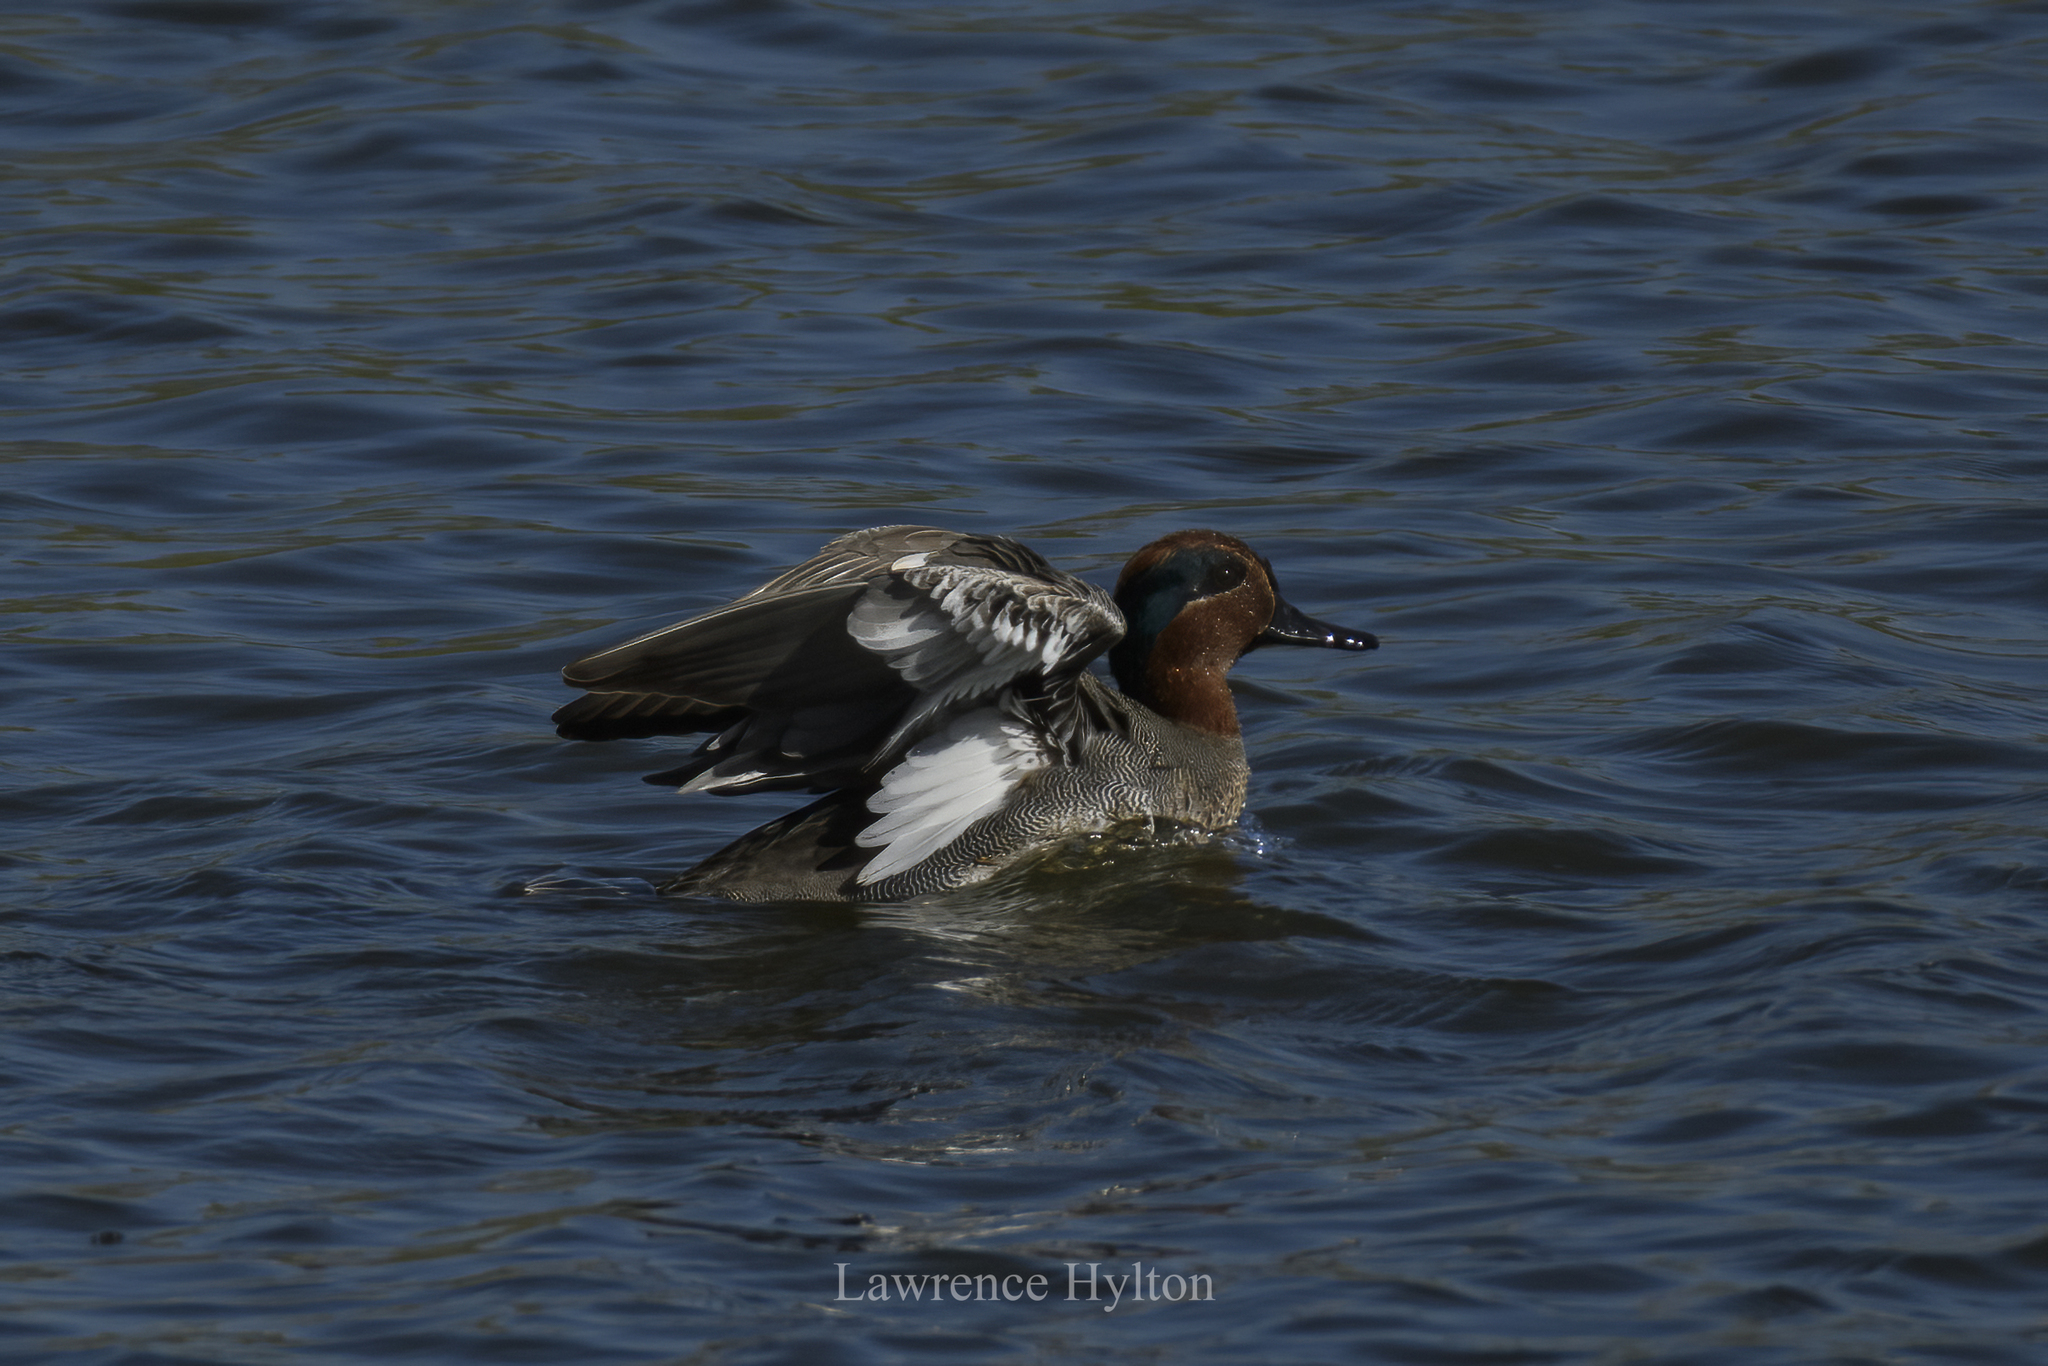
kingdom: Animalia
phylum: Chordata
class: Aves
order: Anseriformes
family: Anatidae
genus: Anas
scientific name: Anas crecca
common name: Eurasian teal
